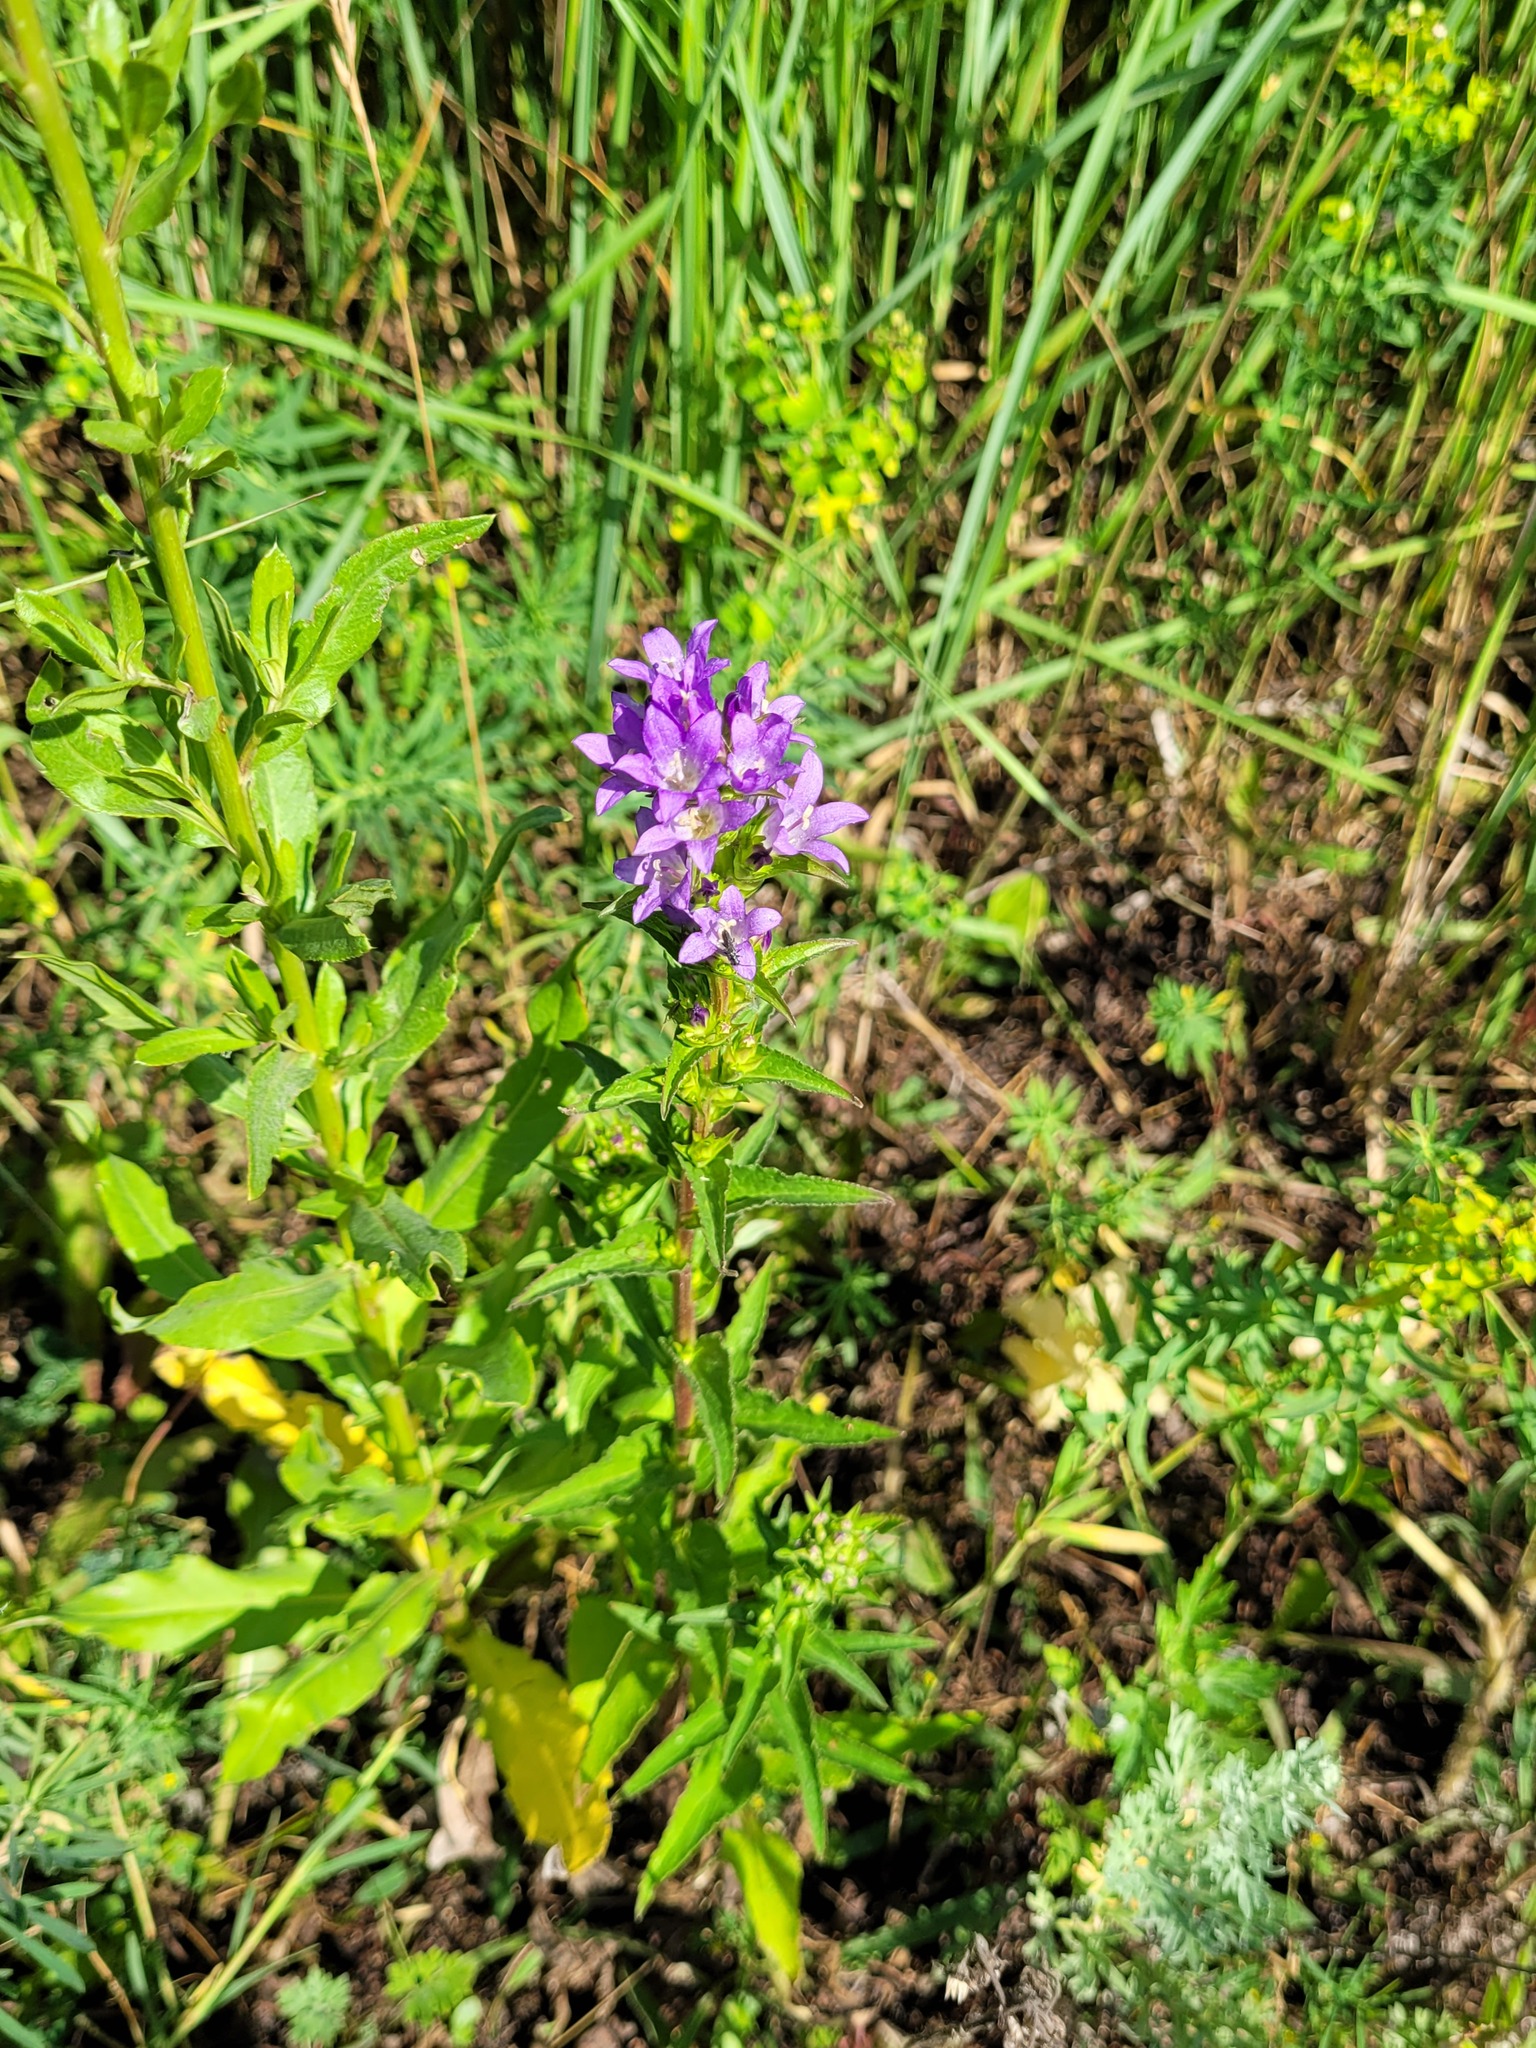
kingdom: Plantae
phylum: Tracheophyta
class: Magnoliopsida
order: Asterales
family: Campanulaceae
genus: Campanula
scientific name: Campanula glomerata
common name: Clustered bellflower
